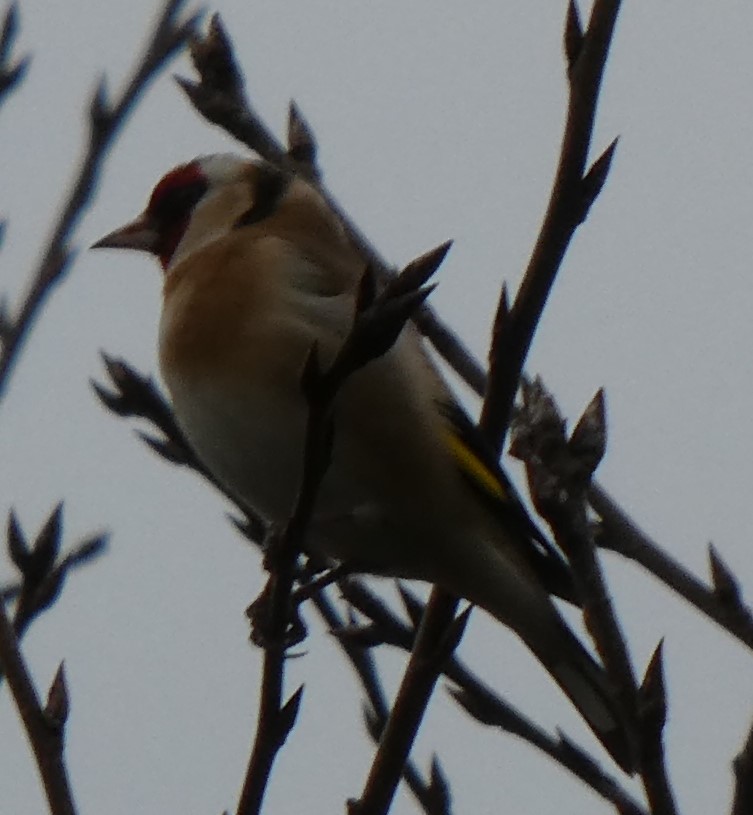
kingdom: Animalia
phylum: Chordata
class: Aves
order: Passeriformes
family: Fringillidae
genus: Carduelis
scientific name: Carduelis carduelis
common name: European goldfinch
